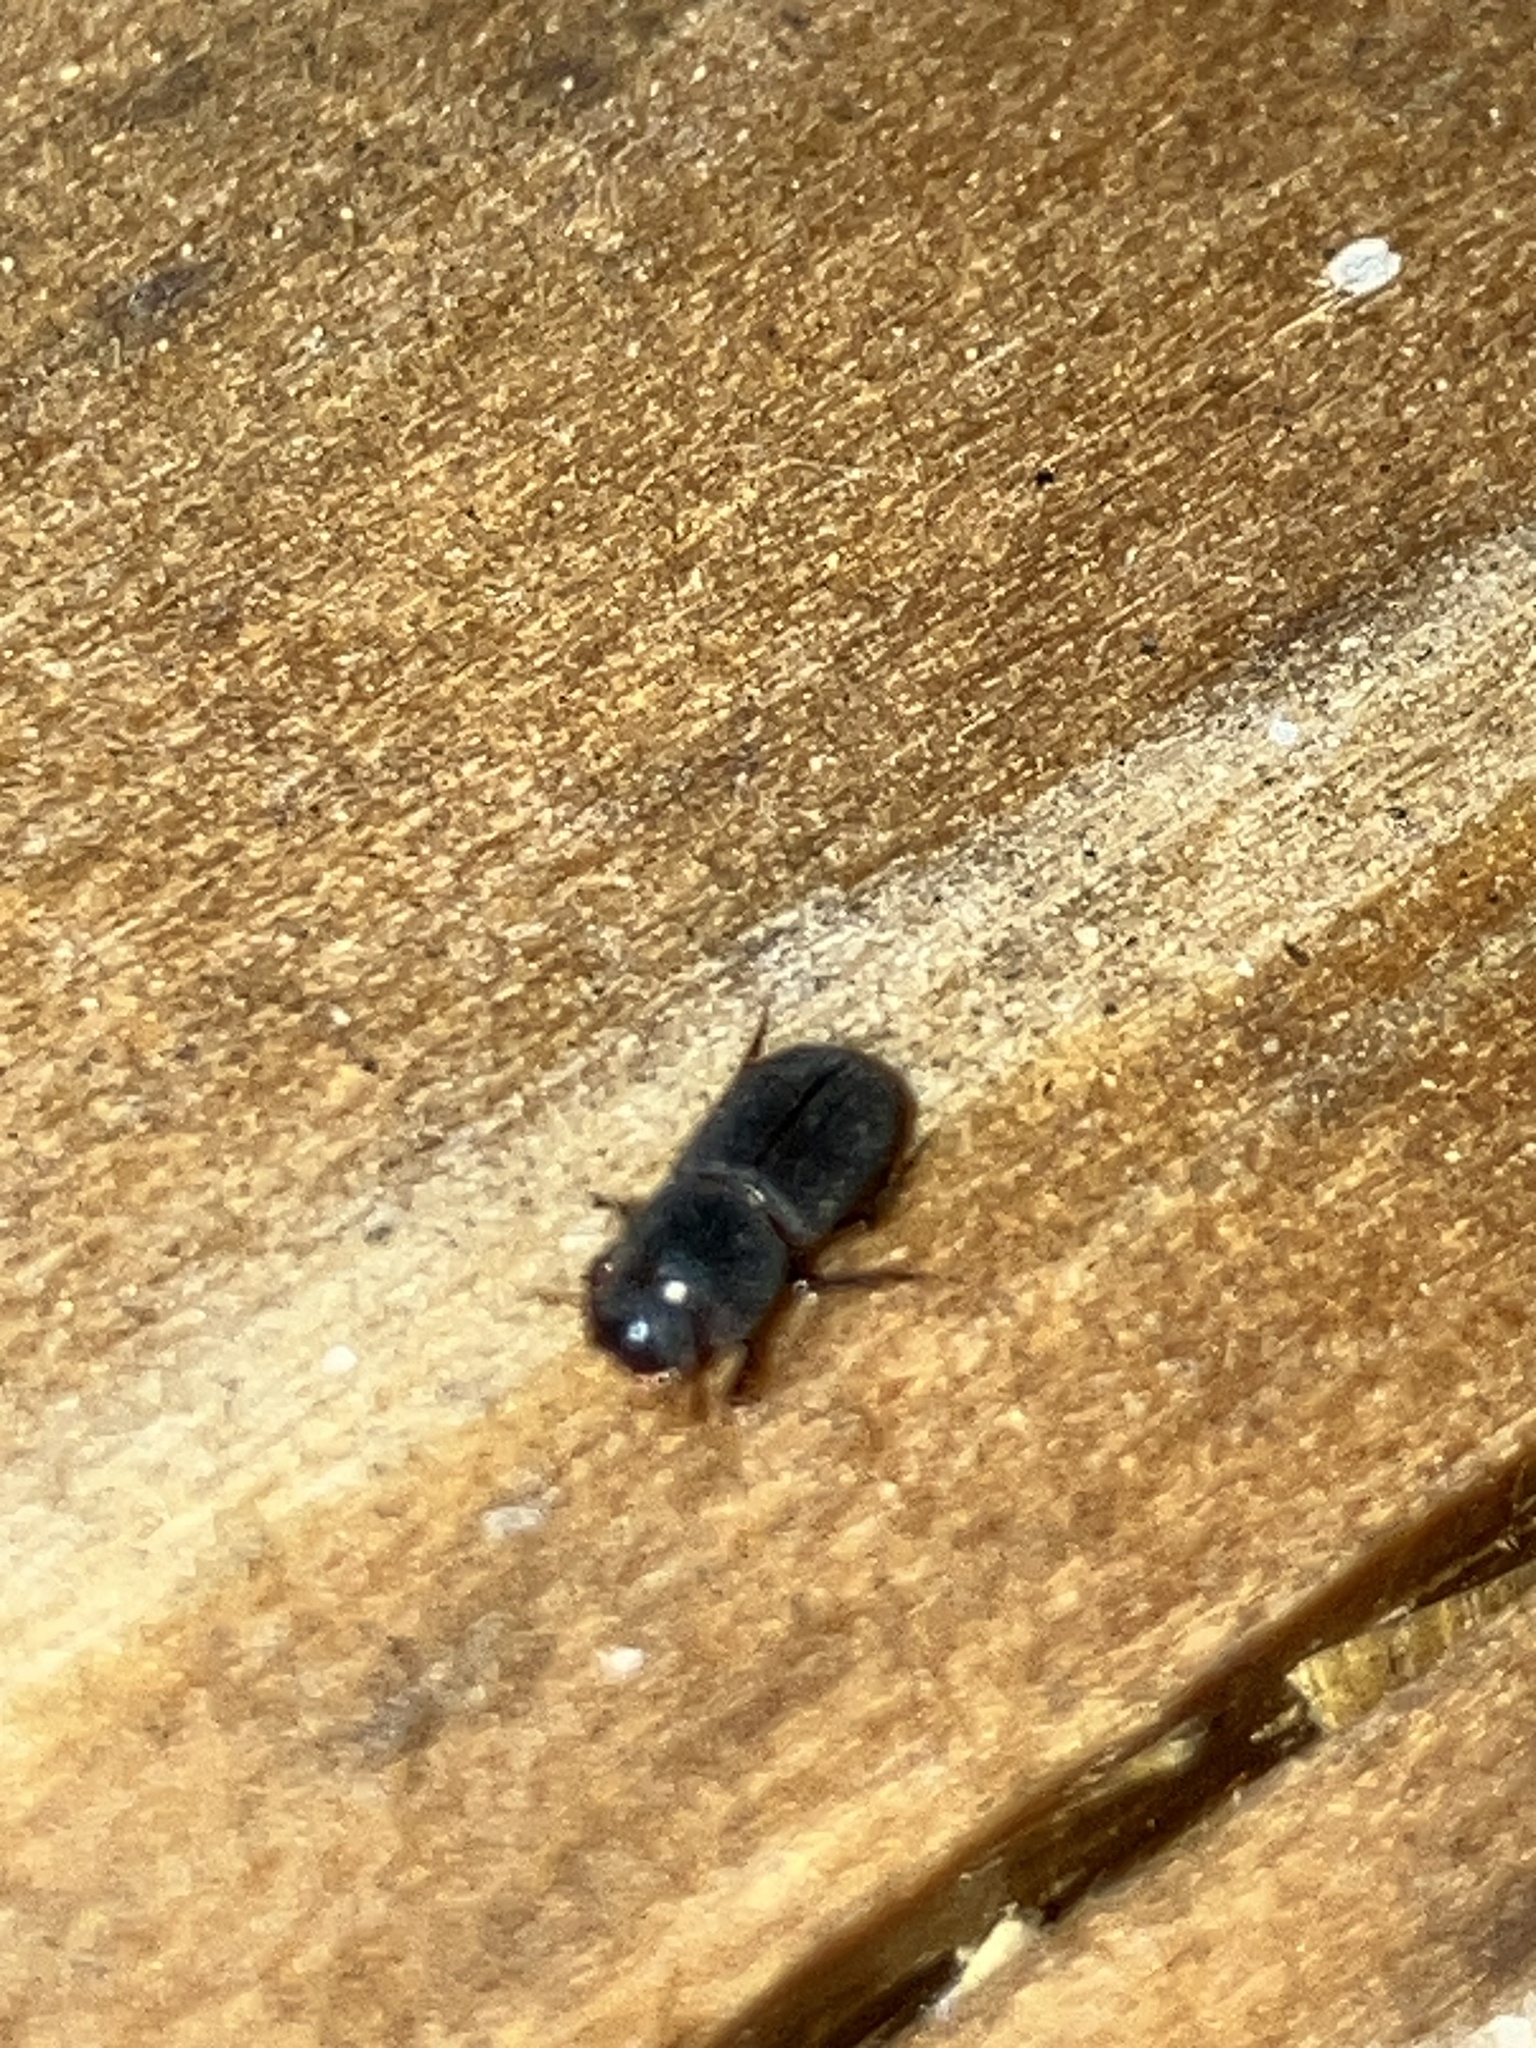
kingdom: Animalia
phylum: Arthropoda
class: Insecta
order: Coleoptera
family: Aphodiidae
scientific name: Aphodiidae
